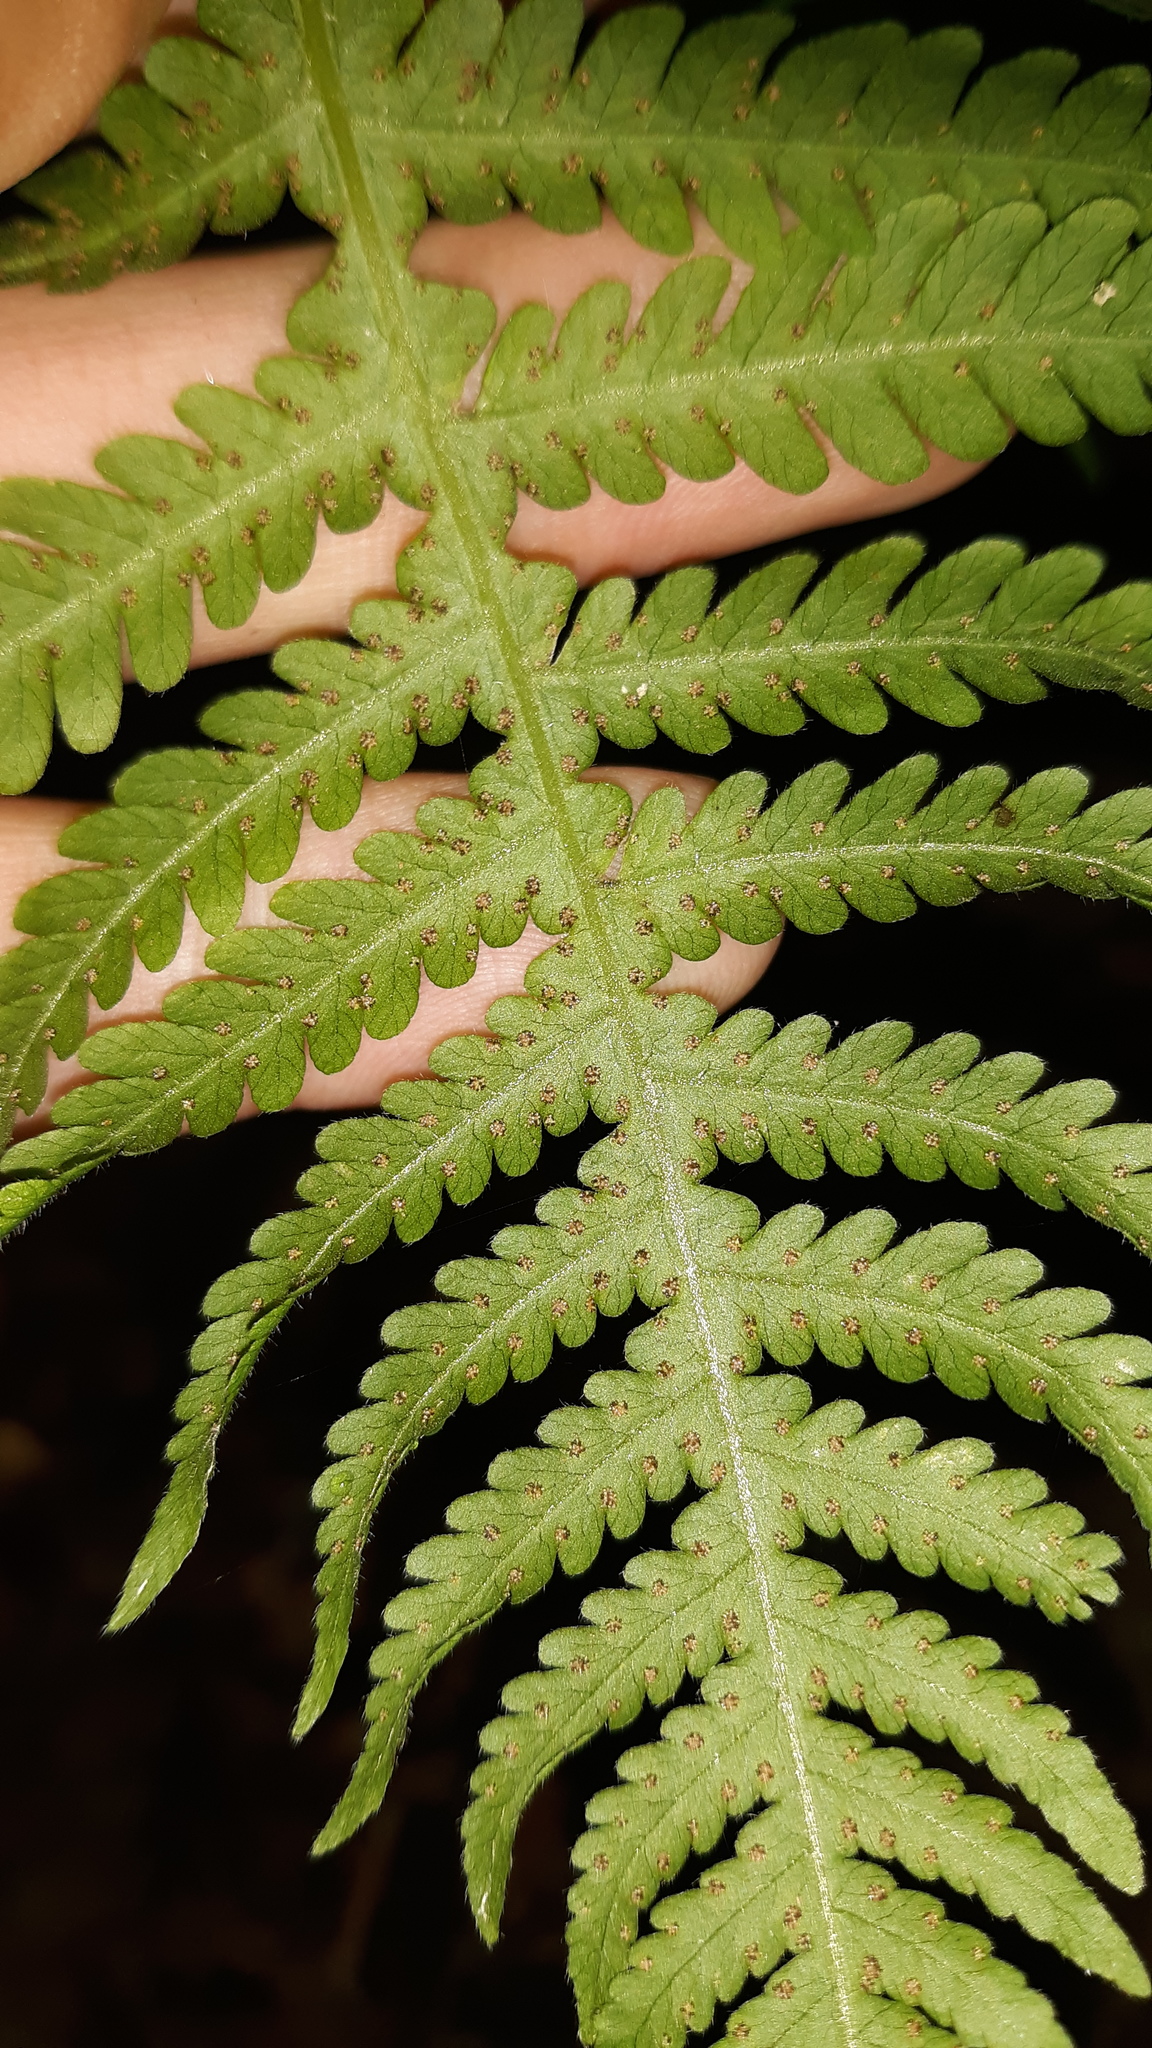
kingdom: Plantae
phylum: Tracheophyta
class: Polypodiopsida
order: Polypodiales
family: Thelypteridaceae
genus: Phegopteris
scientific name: Phegopteris hexagonoptera
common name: Broad beech fern
